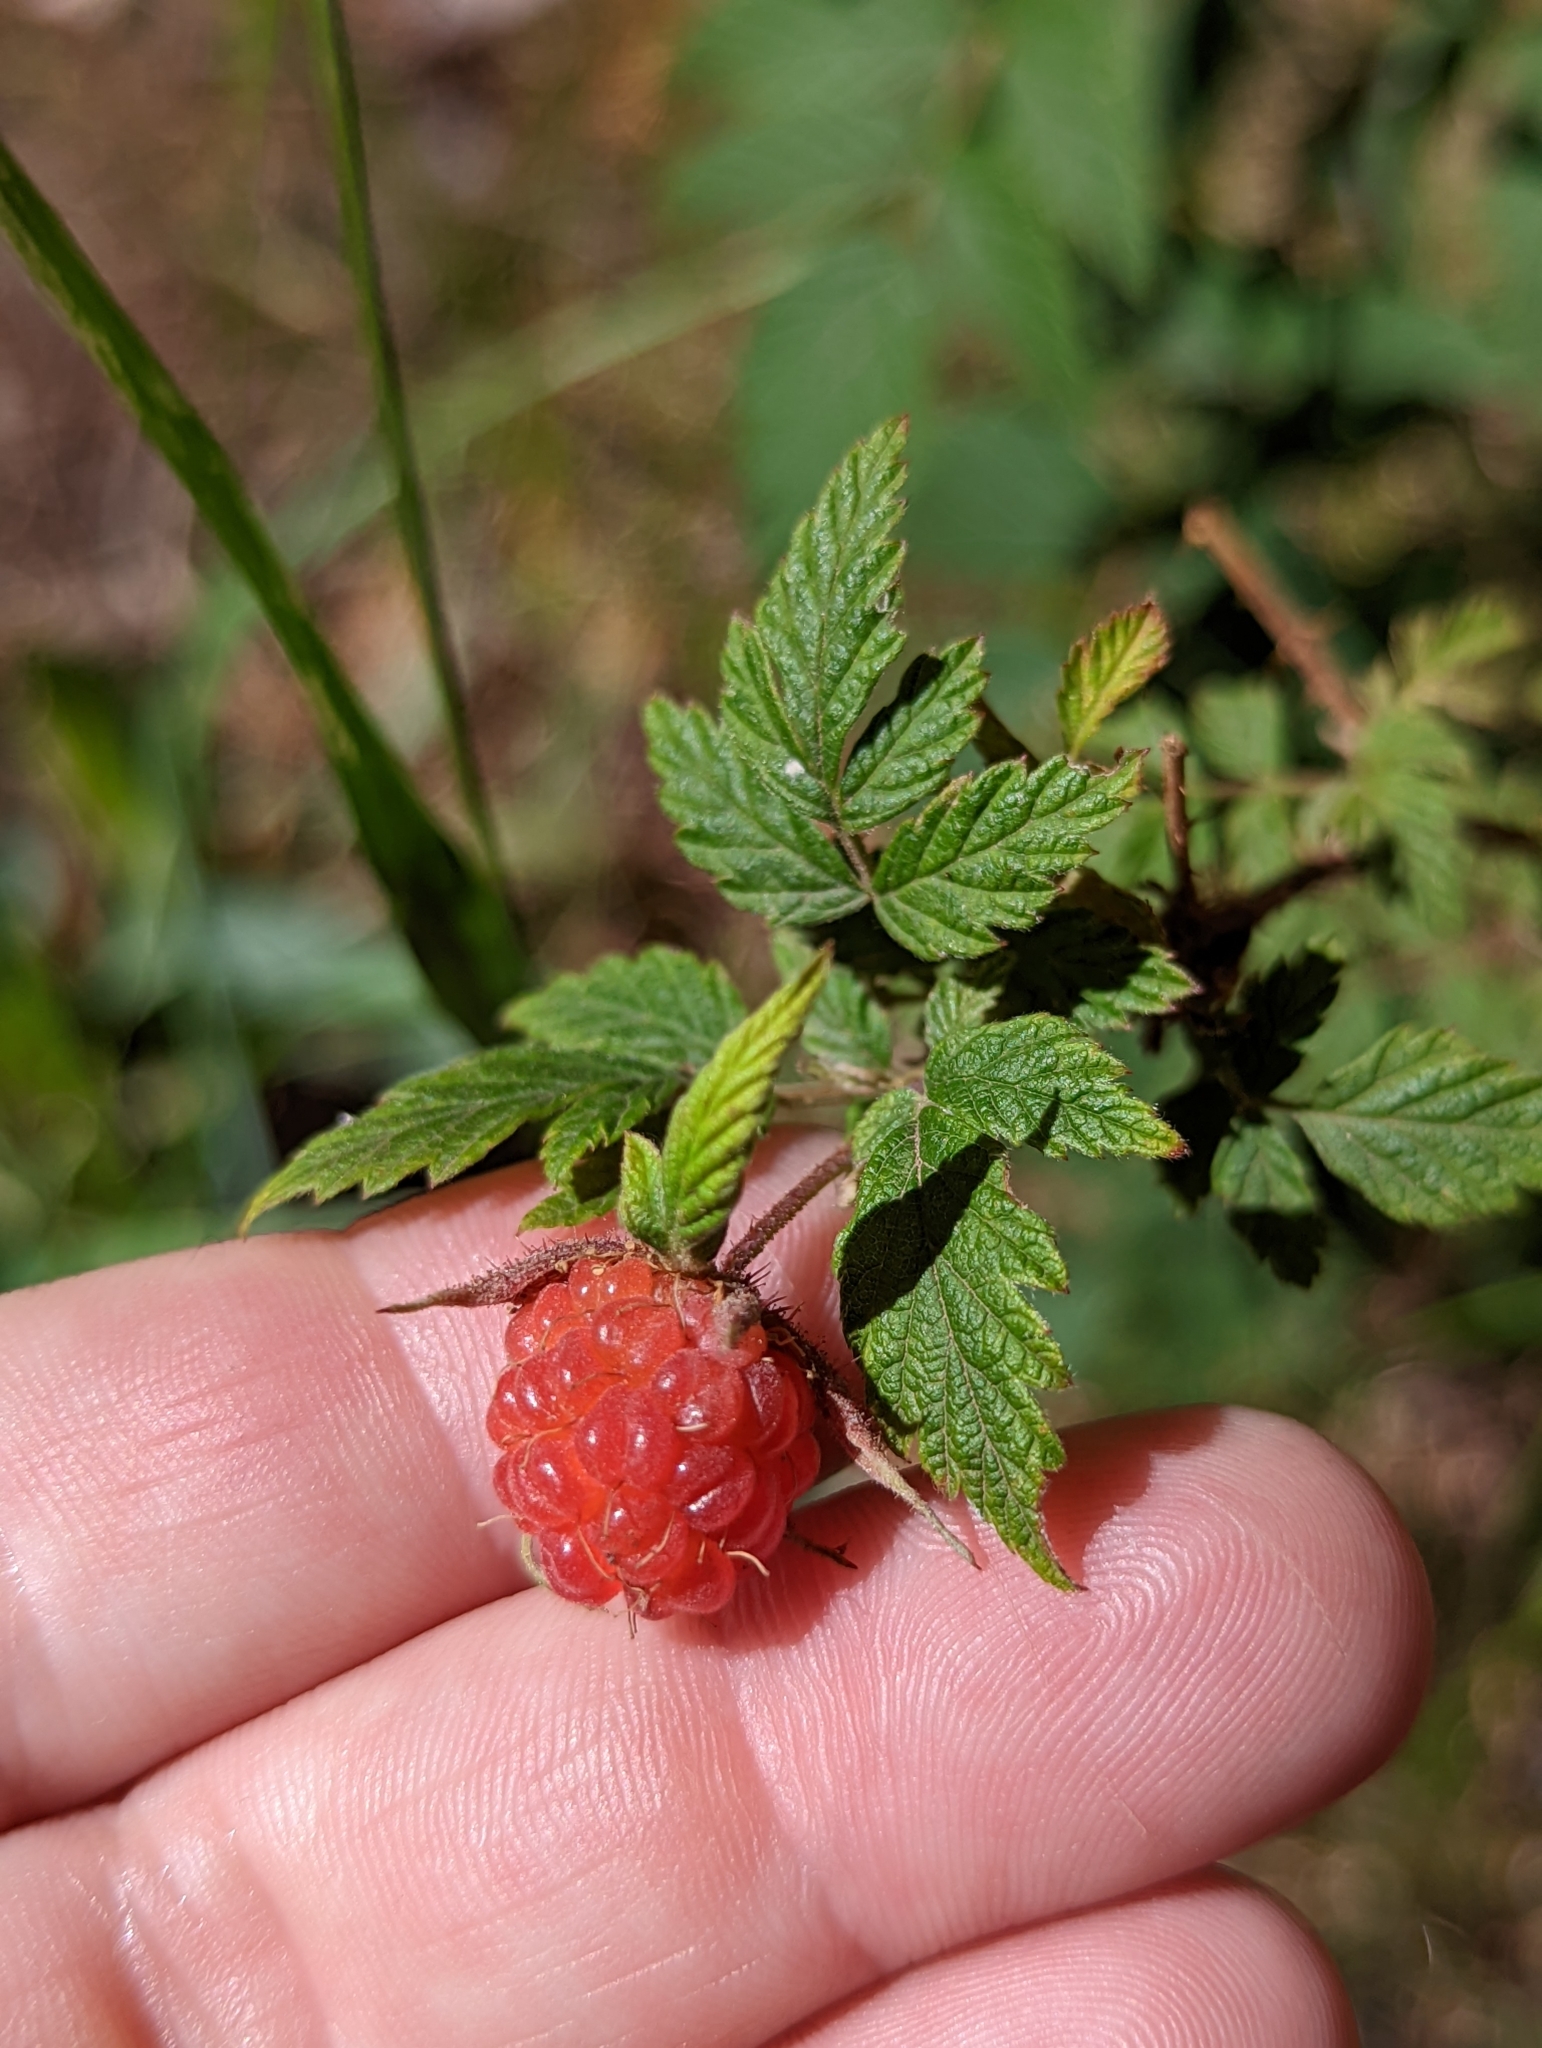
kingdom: Plantae
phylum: Tracheophyta
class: Magnoliopsida
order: Rosales
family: Rosaceae
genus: Rubus
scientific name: Rubus idaeus
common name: Raspberry
